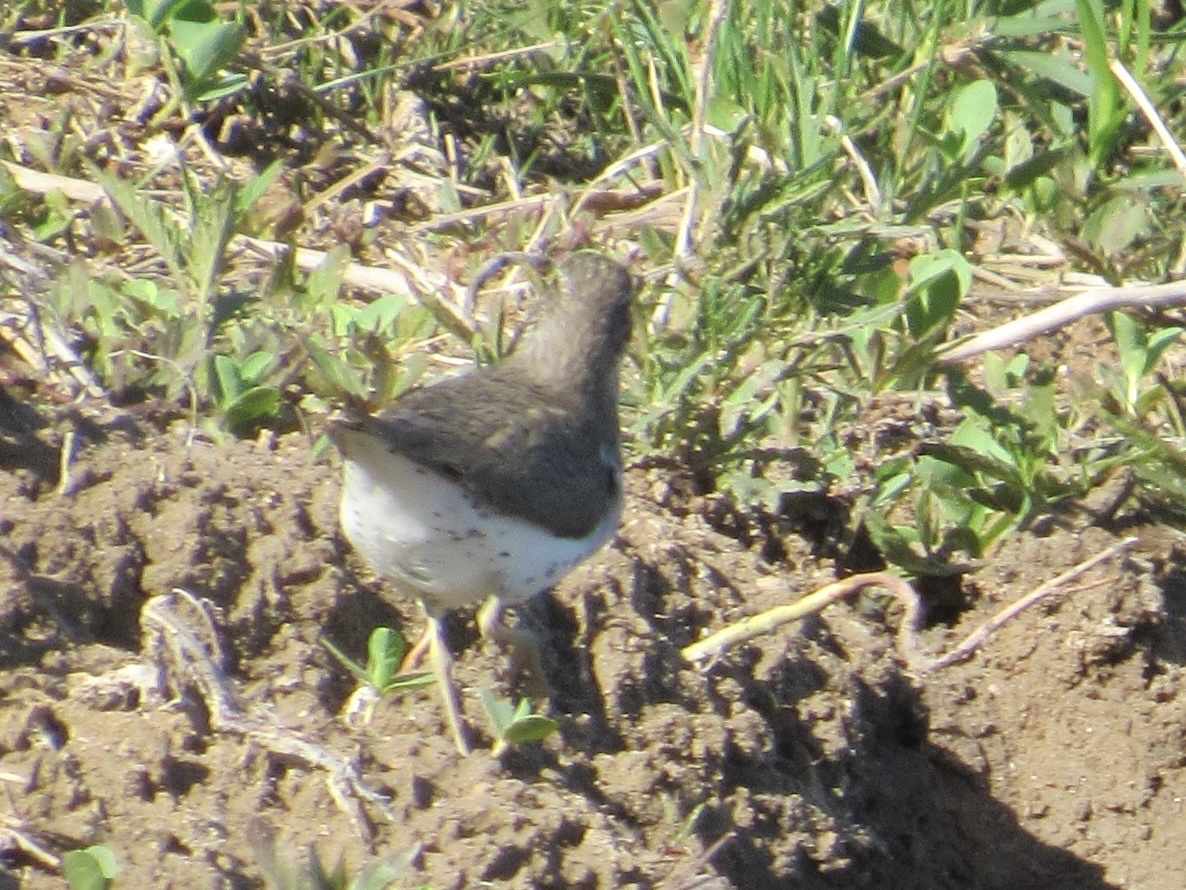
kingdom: Animalia
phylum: Chordata
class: Aves
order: Charadriiformes
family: Scolopacidae
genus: Actitis
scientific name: Actitis macularius
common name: Spotted sandpiper
